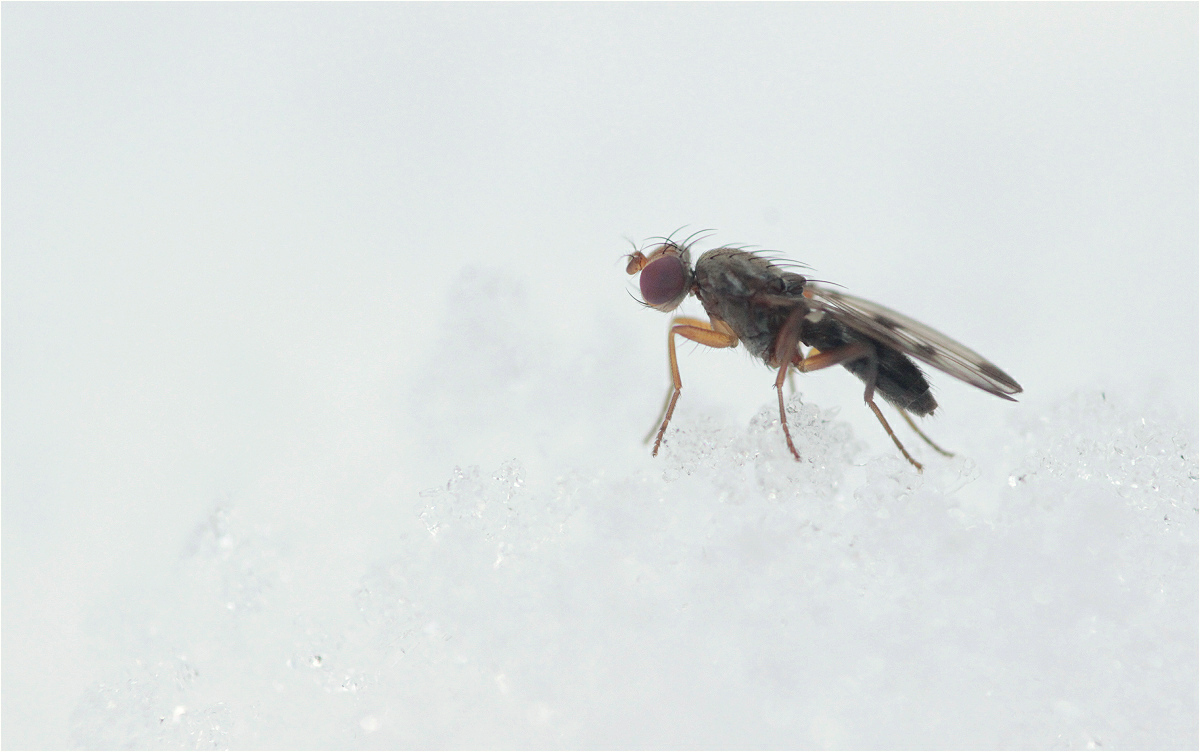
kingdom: Animalia
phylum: Arthropoda
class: Insecta
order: Diptera
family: Opomyzidae
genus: Geomyza
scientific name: Geomyza tripunctata
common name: Cereal fly
